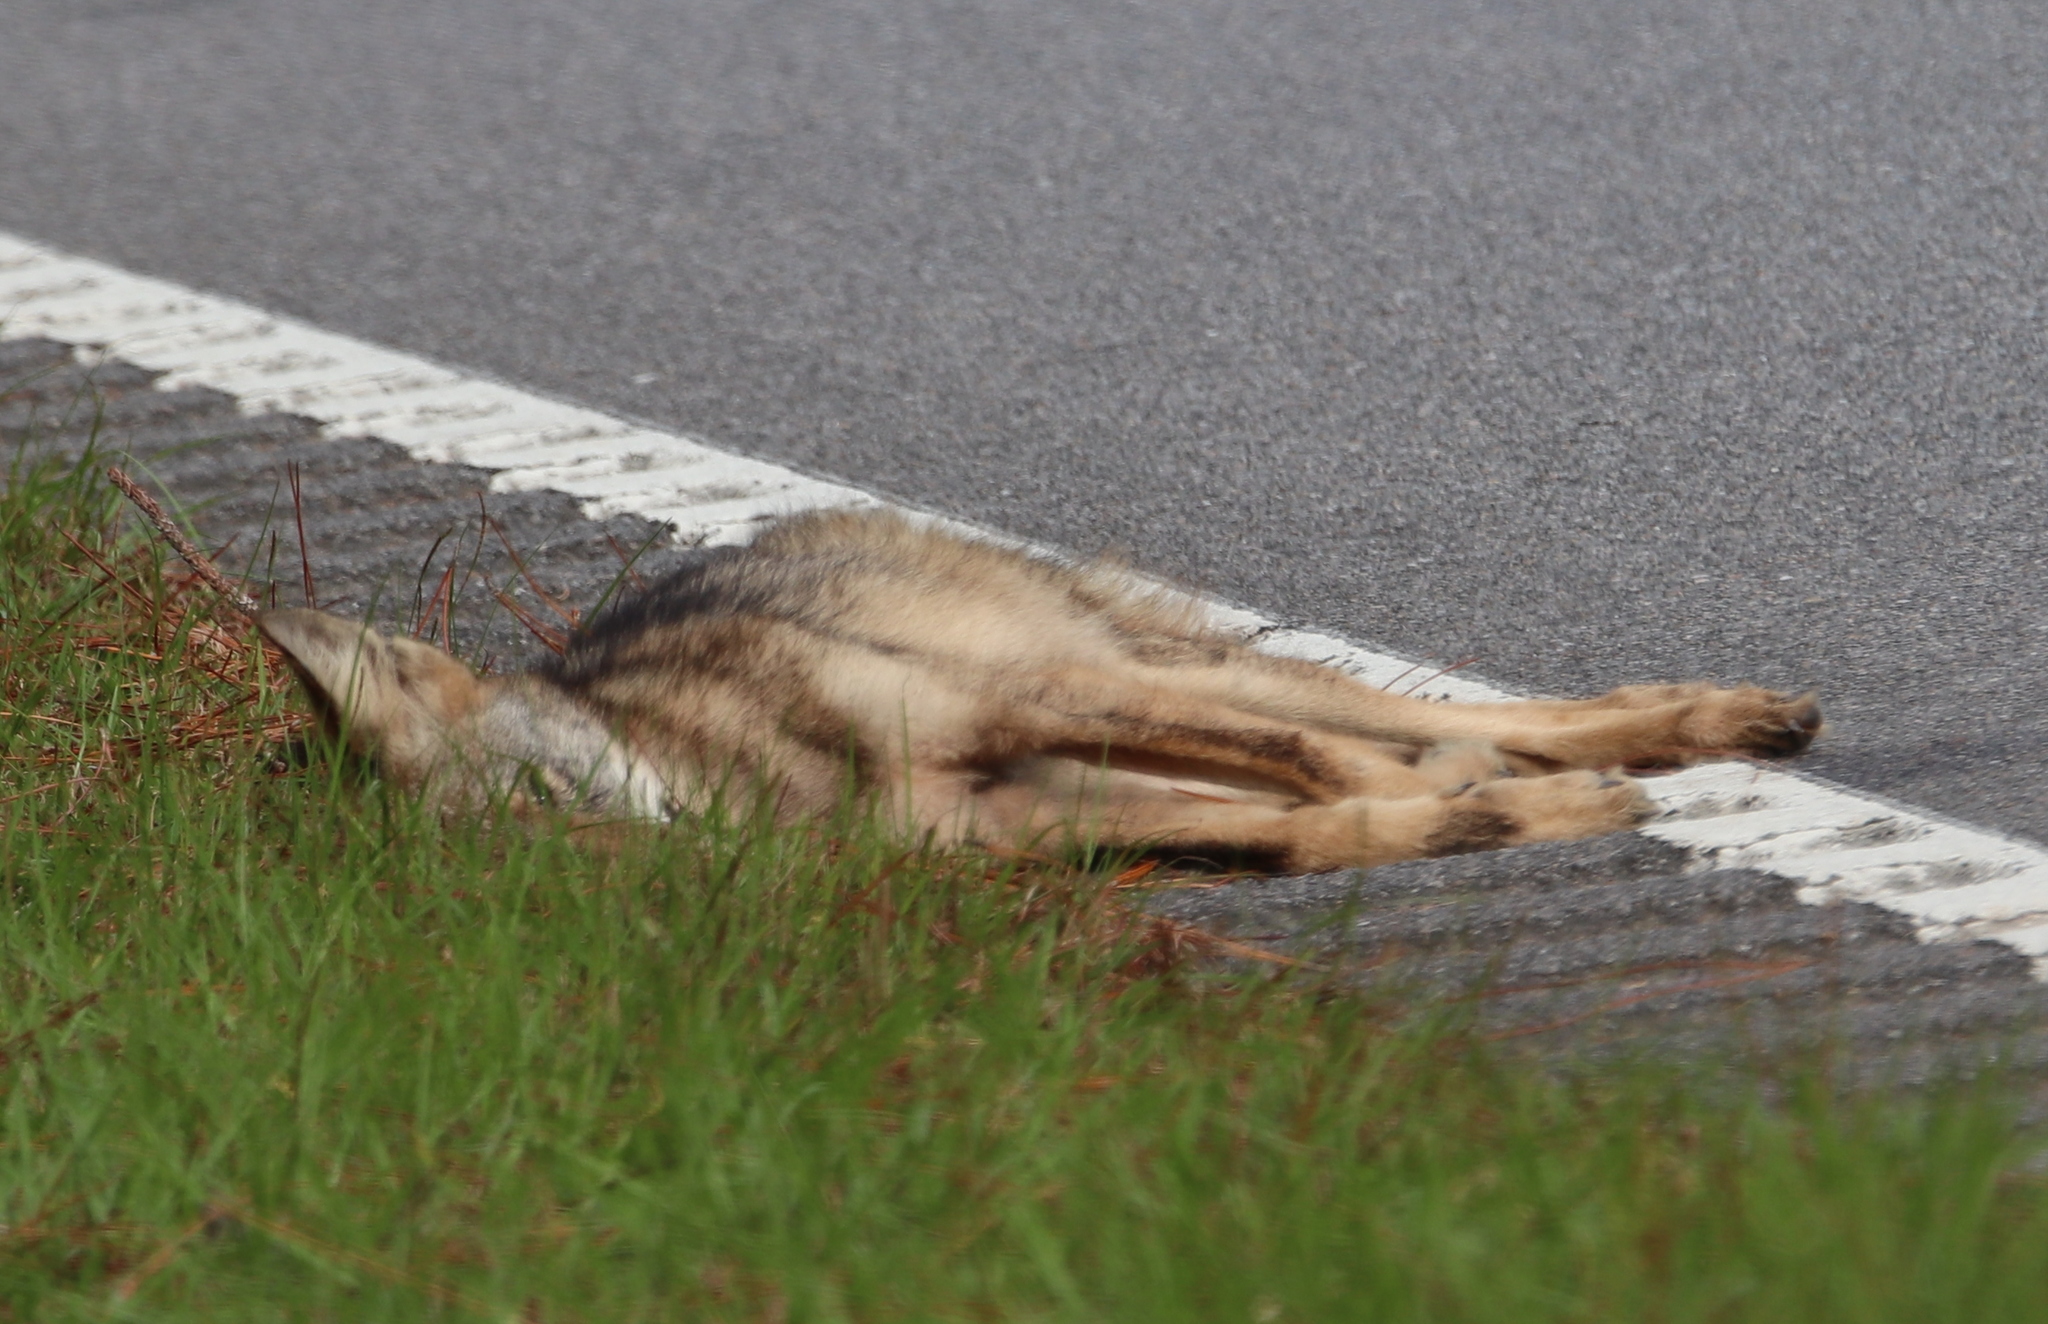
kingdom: Animalia
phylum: Chordata
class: Mammalia
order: Carnivora
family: Canidae
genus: Canis
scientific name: Canis latrans
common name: Coyote
